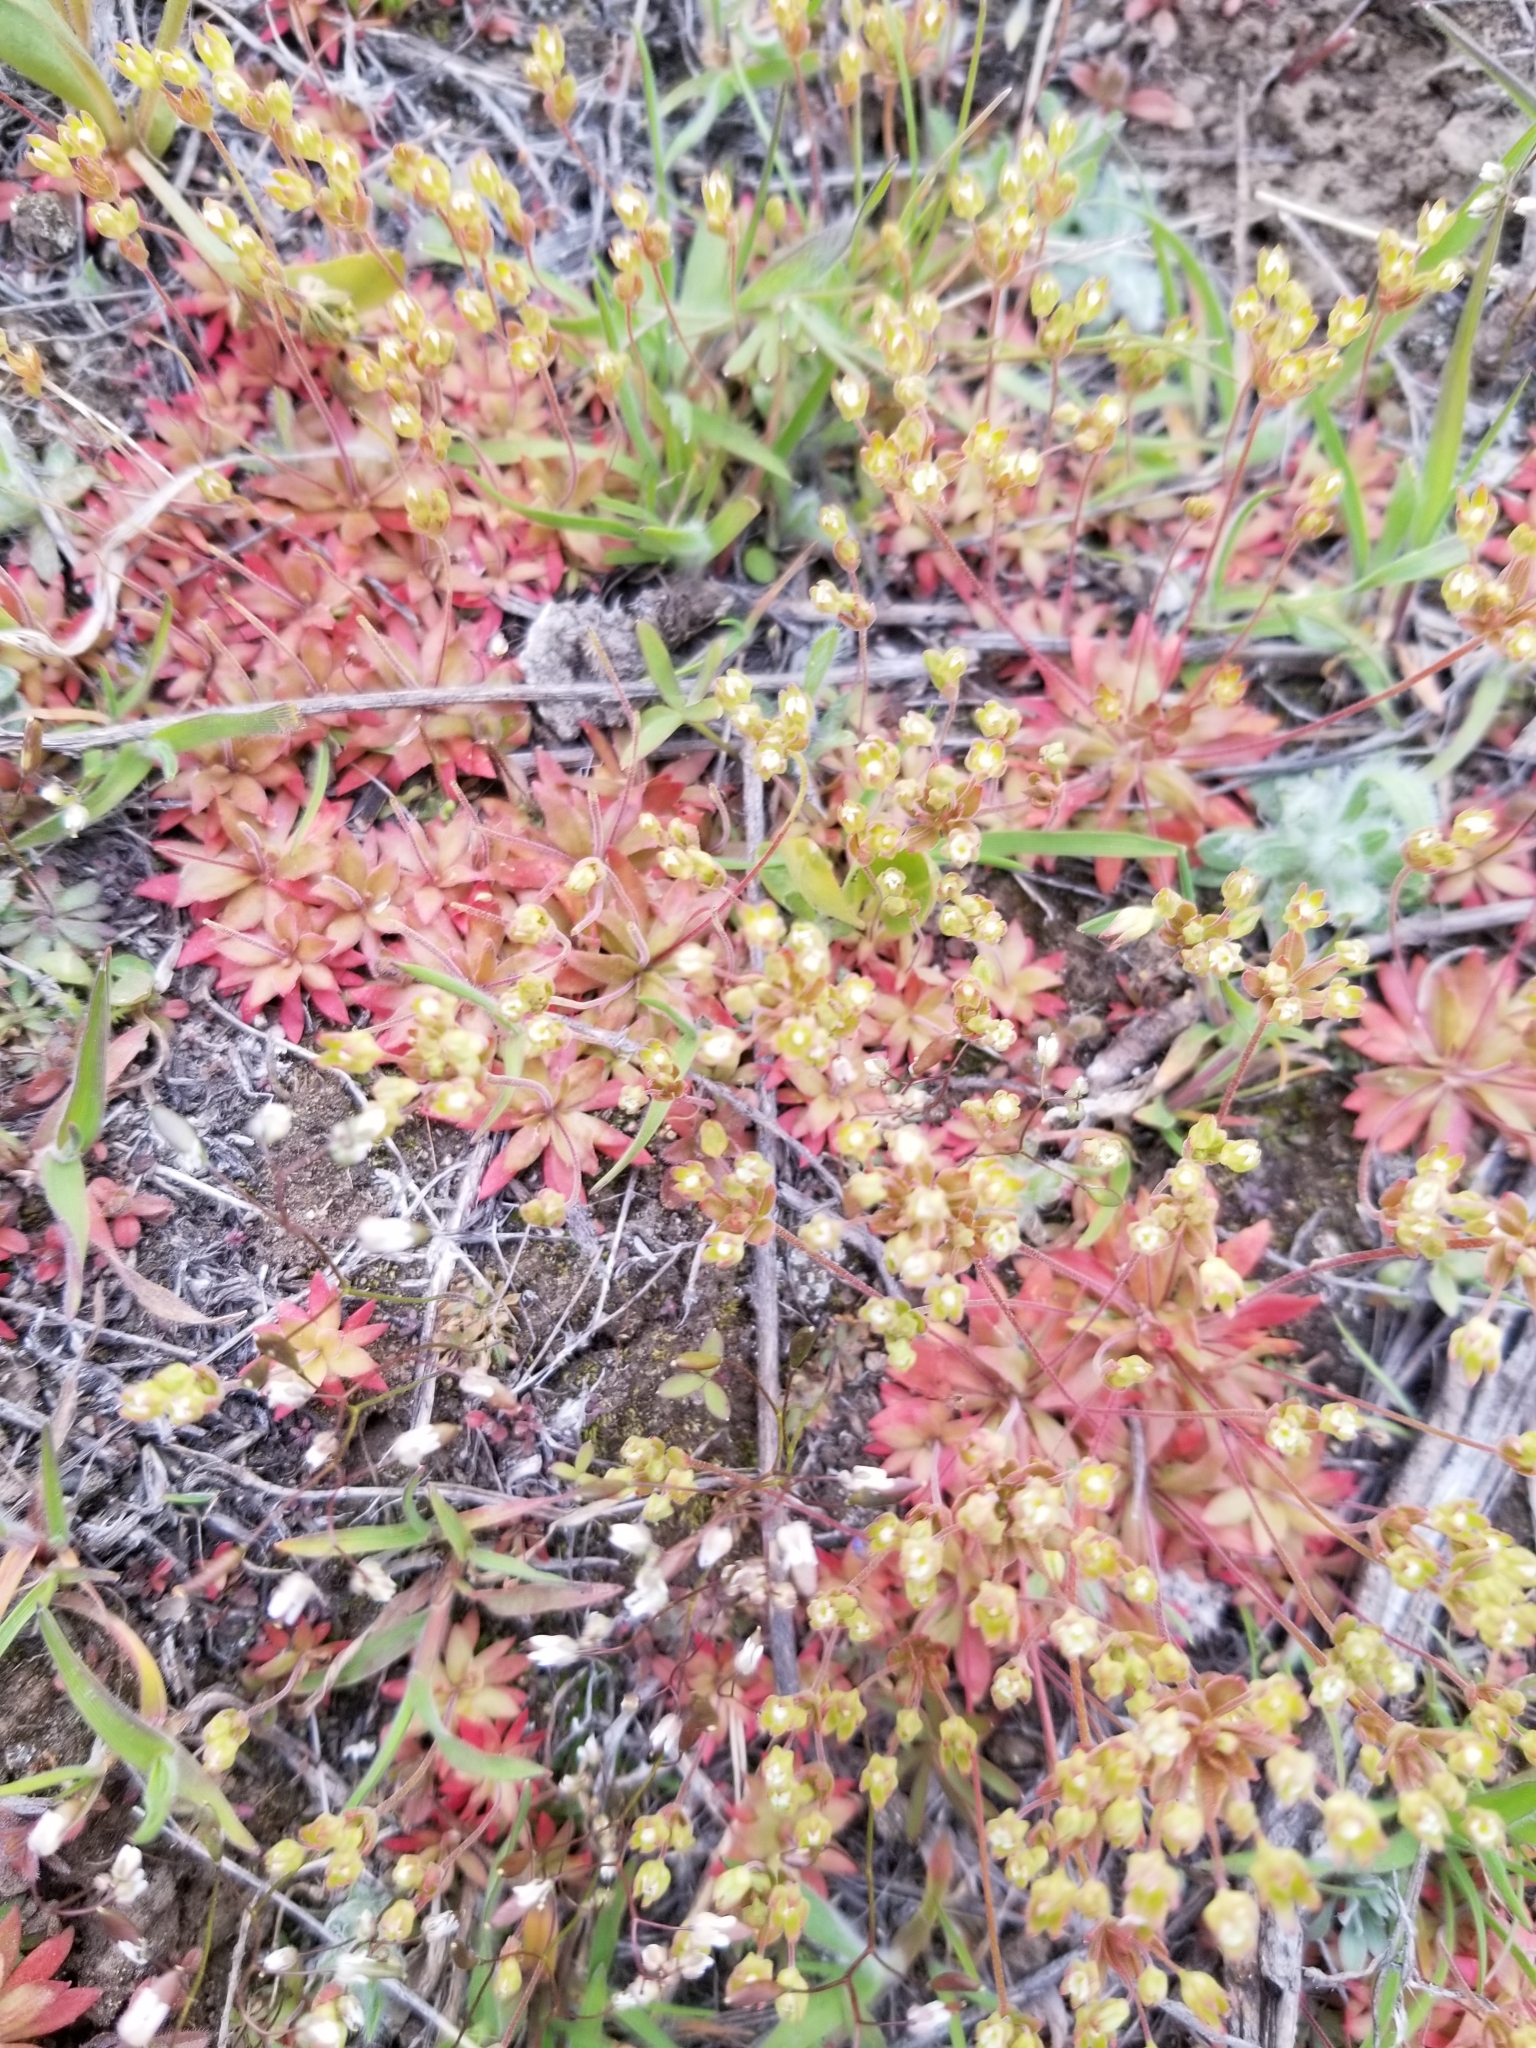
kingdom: Plantae
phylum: Tracheophyta
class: Magnoliopsida
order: Brassicales
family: Brassicaceae
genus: Draba
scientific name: Draba verna
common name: Spring draba
